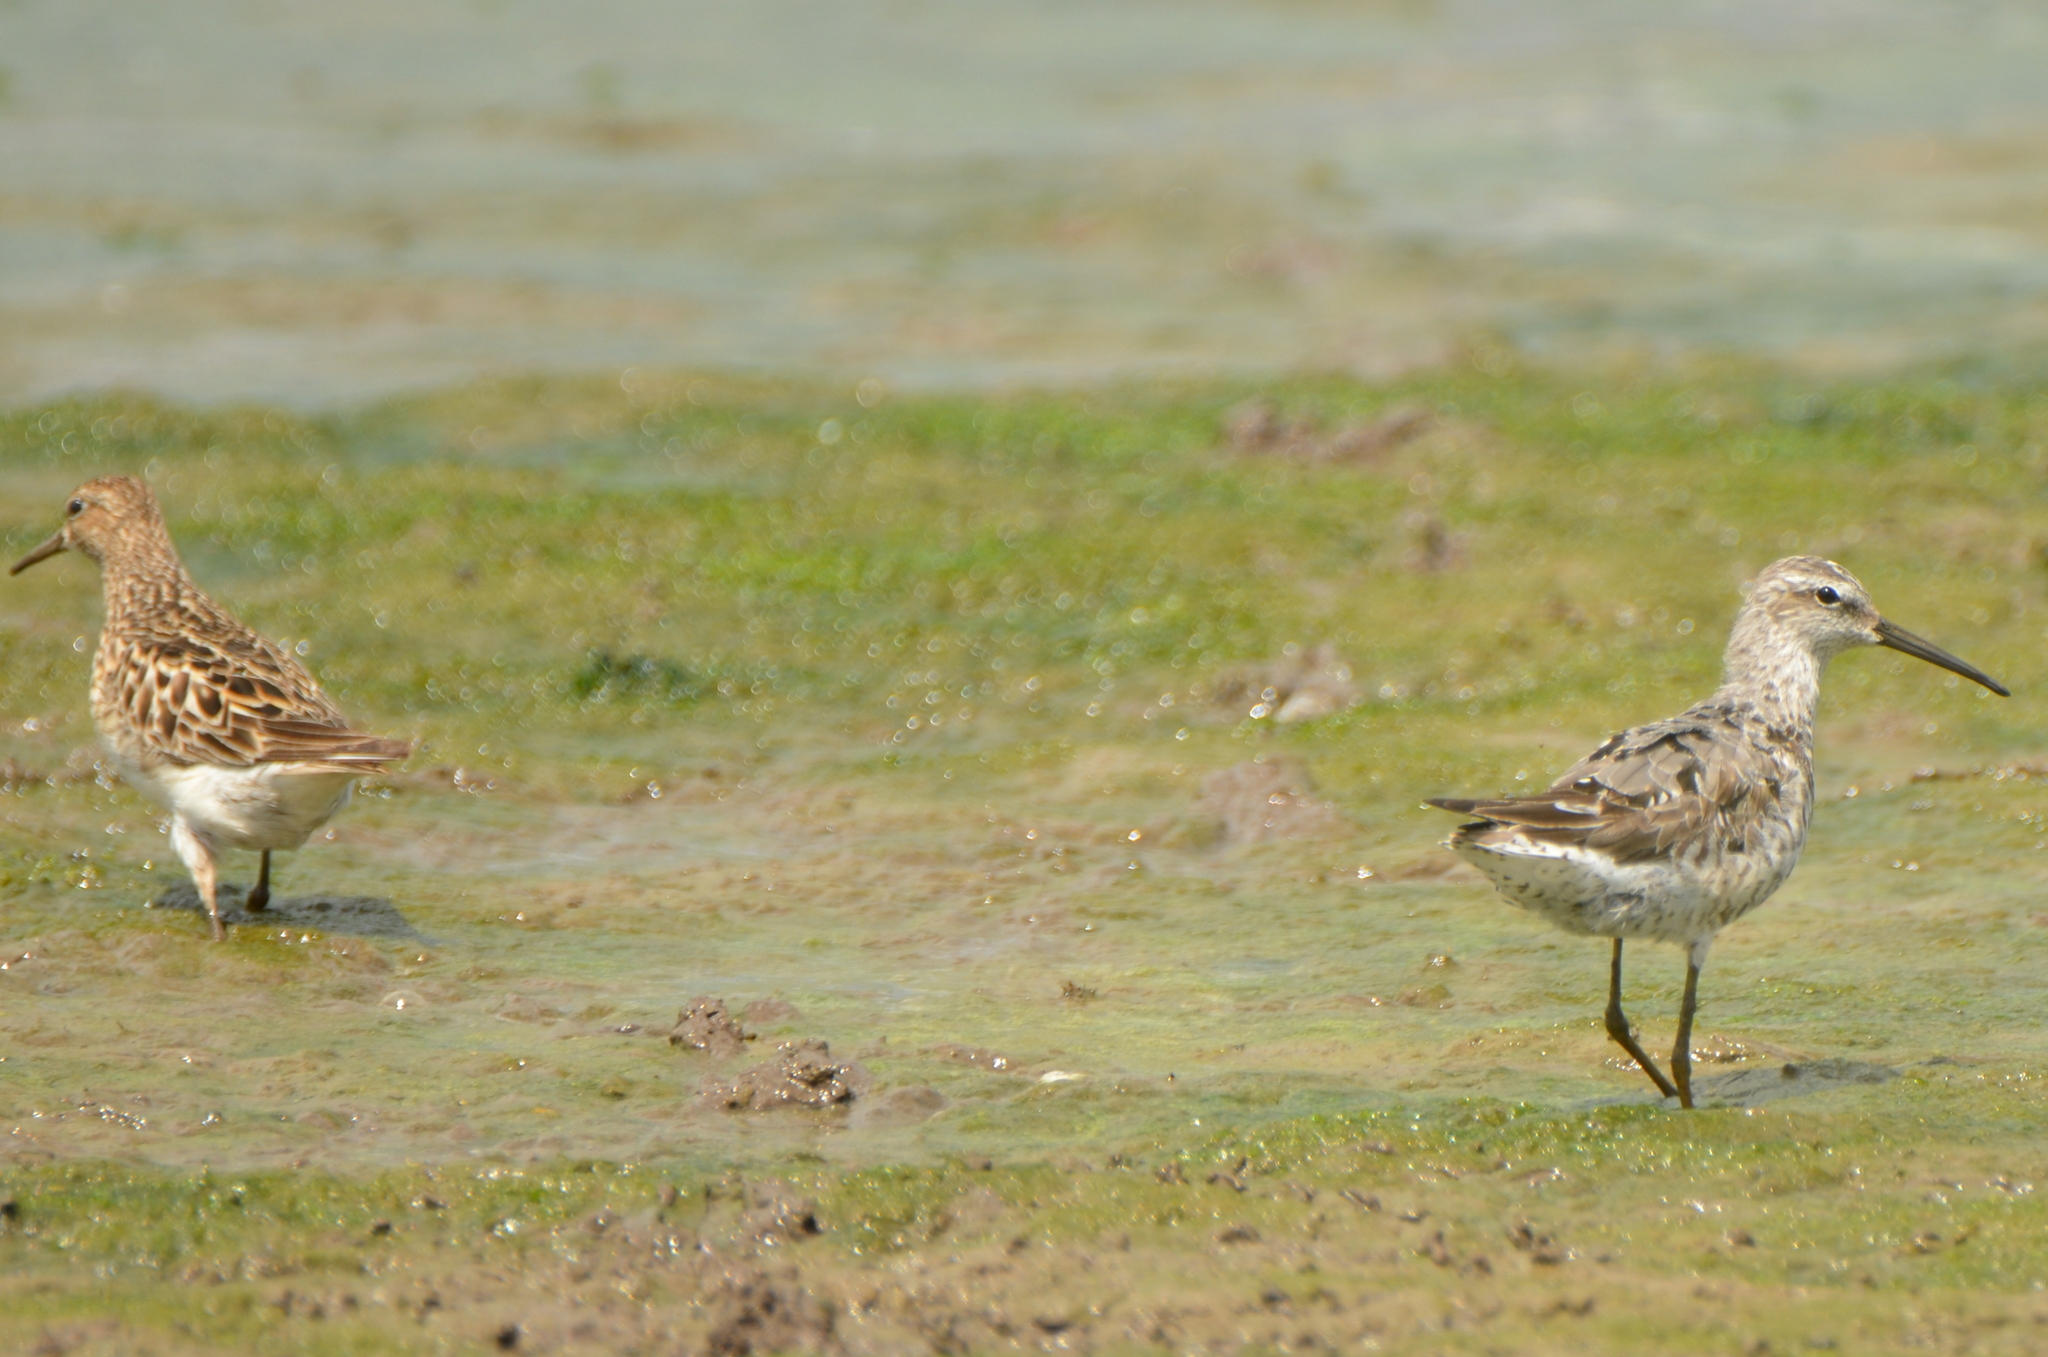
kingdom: Animalia
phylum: Chordata
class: Aves
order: Charadriiformes
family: Scolopacidae
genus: Calidris
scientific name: Calidris himantopus
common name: Stilt sandpiper
